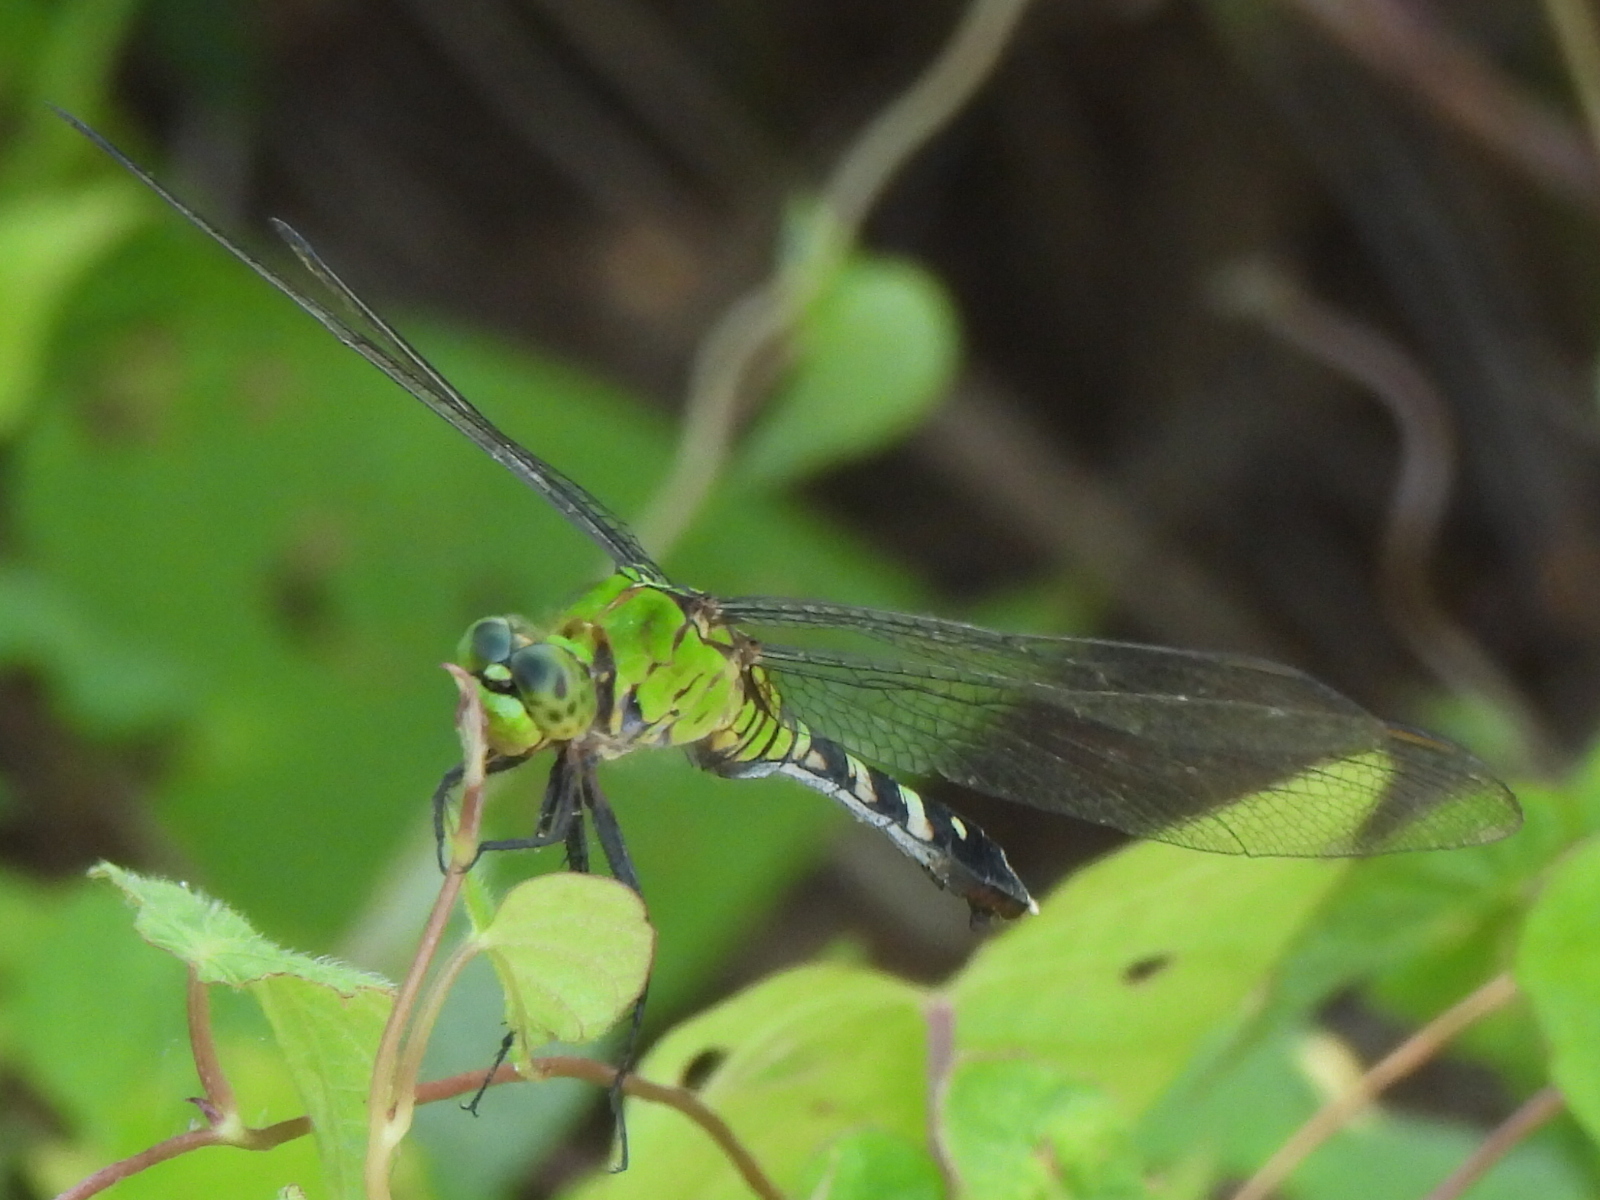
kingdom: Animalia
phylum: Arthropoda
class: Insecta
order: Odonata
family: Libellulidae
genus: Erythemis
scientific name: Erythemis simplicicollis
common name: Eastern pondhawk
